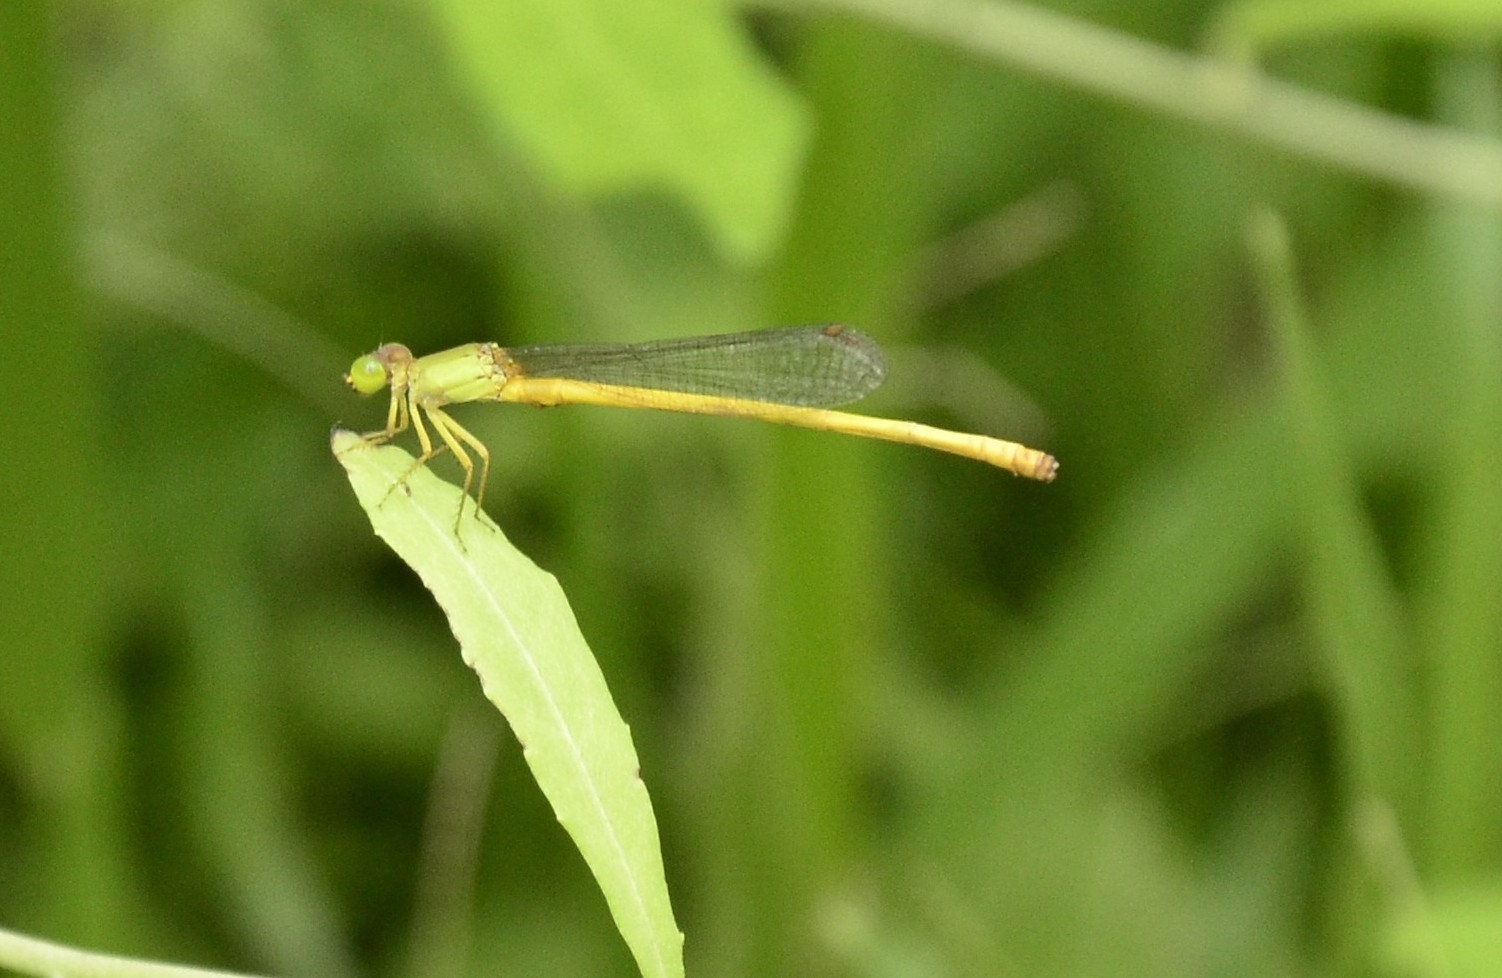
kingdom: Animalia
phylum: Arthropoda
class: Insecta
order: Odonata
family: Coenagrionidae
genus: Ceriagrion
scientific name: Ceriagrion coromandelianum
